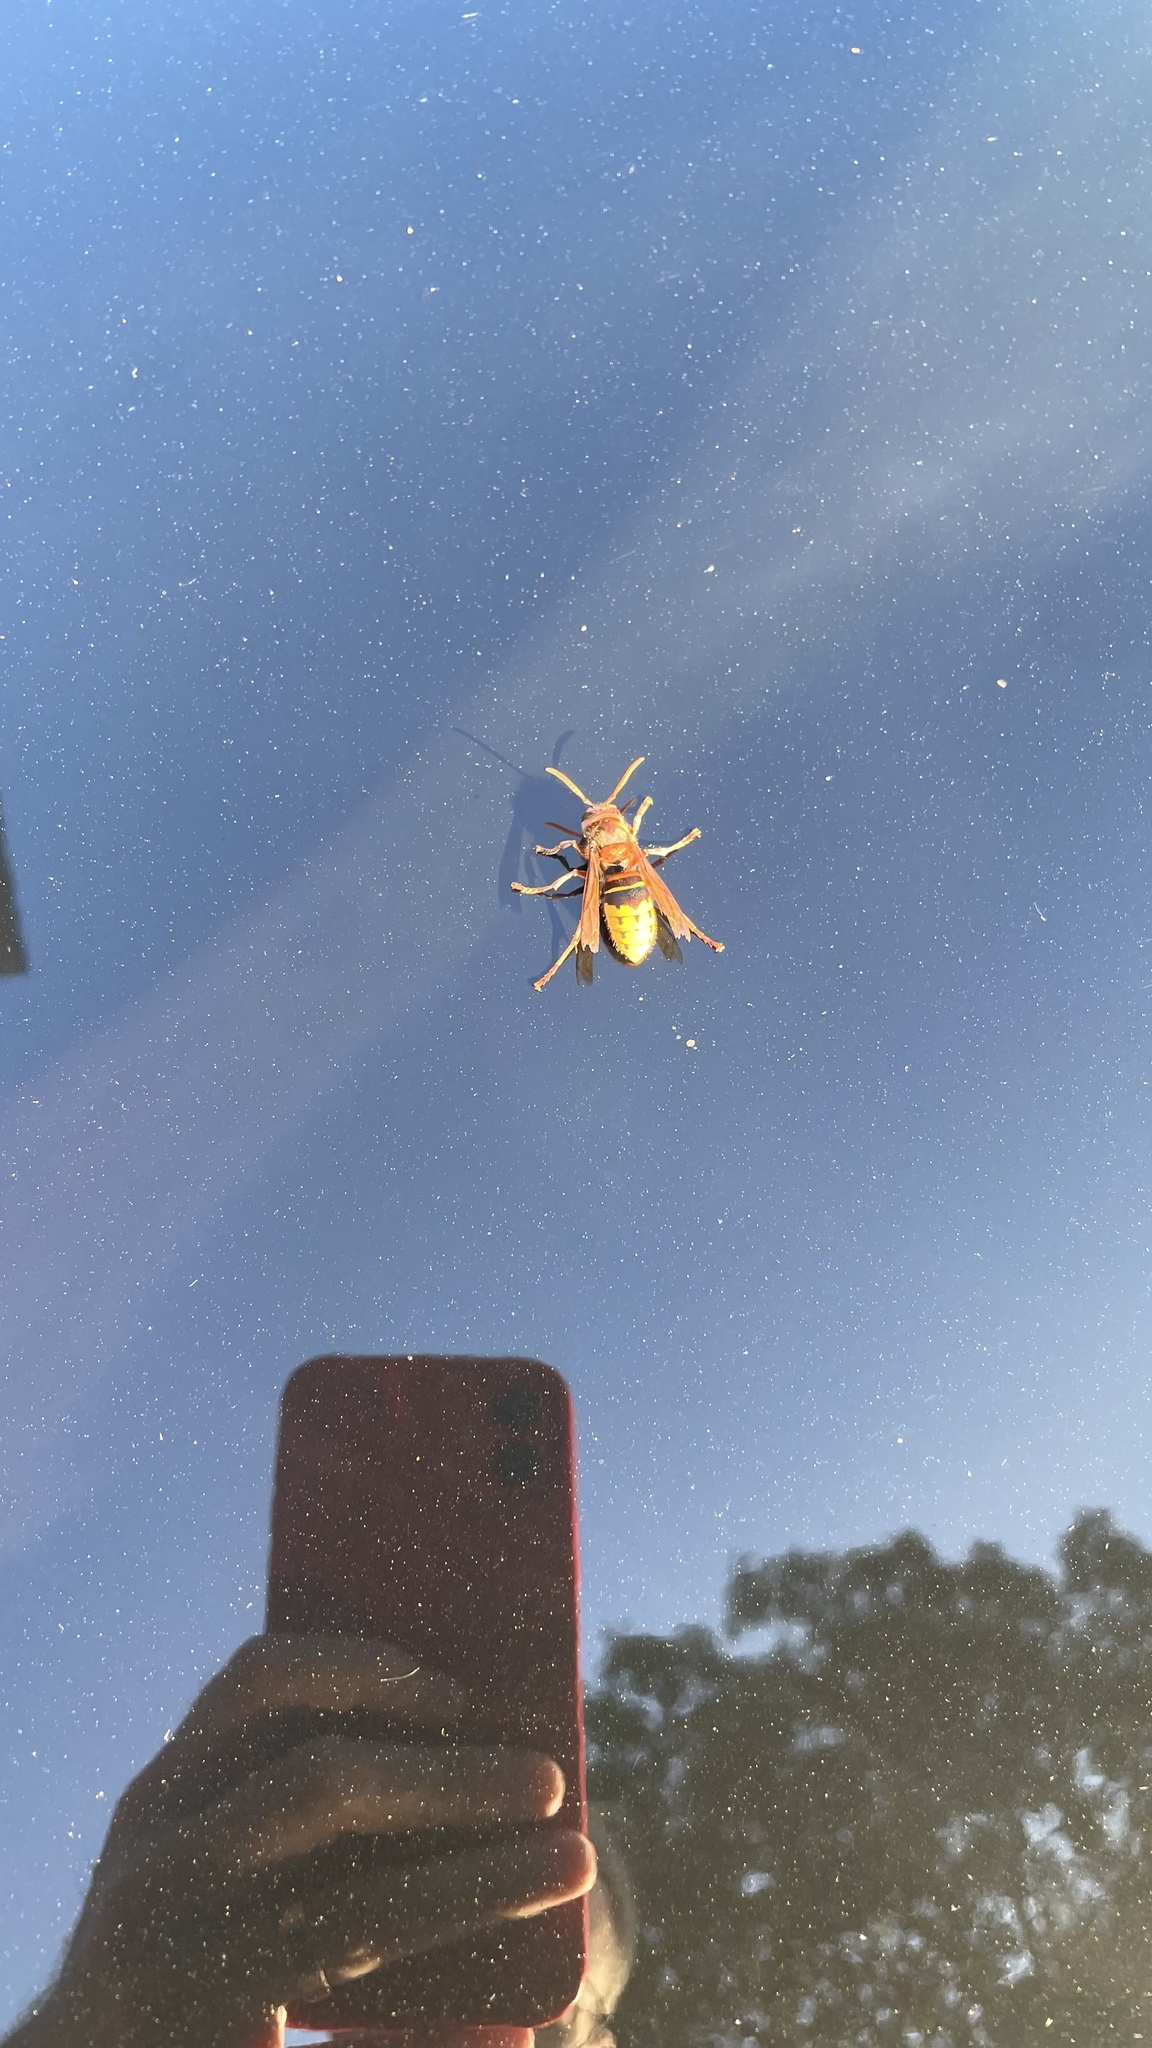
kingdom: Animalia
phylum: Arthropoda
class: Insecta
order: Hymenoptera
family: Vespidae
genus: Vespa
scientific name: Vespa crabro
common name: Hornet
